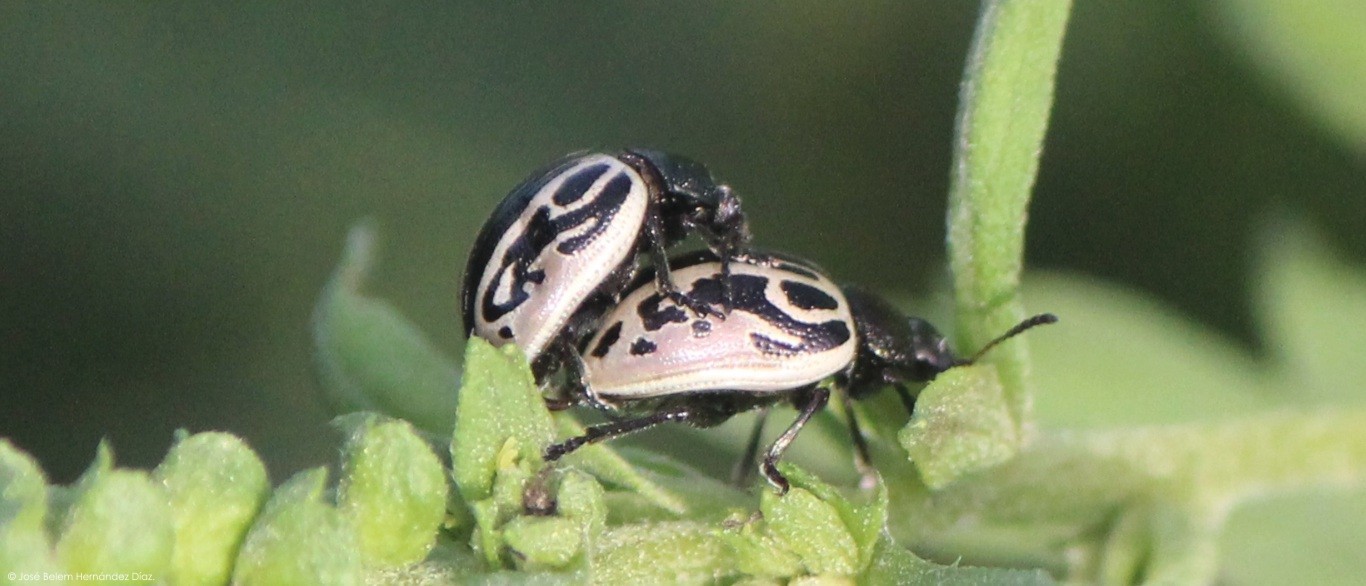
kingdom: Animalia
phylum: Arthropoda
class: Insecta
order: Coleoptera
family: Chrysomelidae
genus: Calligrapha
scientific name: Calligrapha
